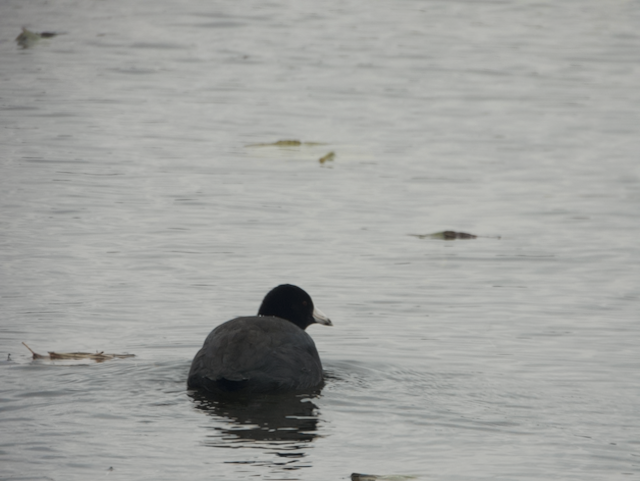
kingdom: Animalia
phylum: Chordata
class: Aves
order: Gruiformes
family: Rallidae
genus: Fulica
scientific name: Fulica americana
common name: American coot
